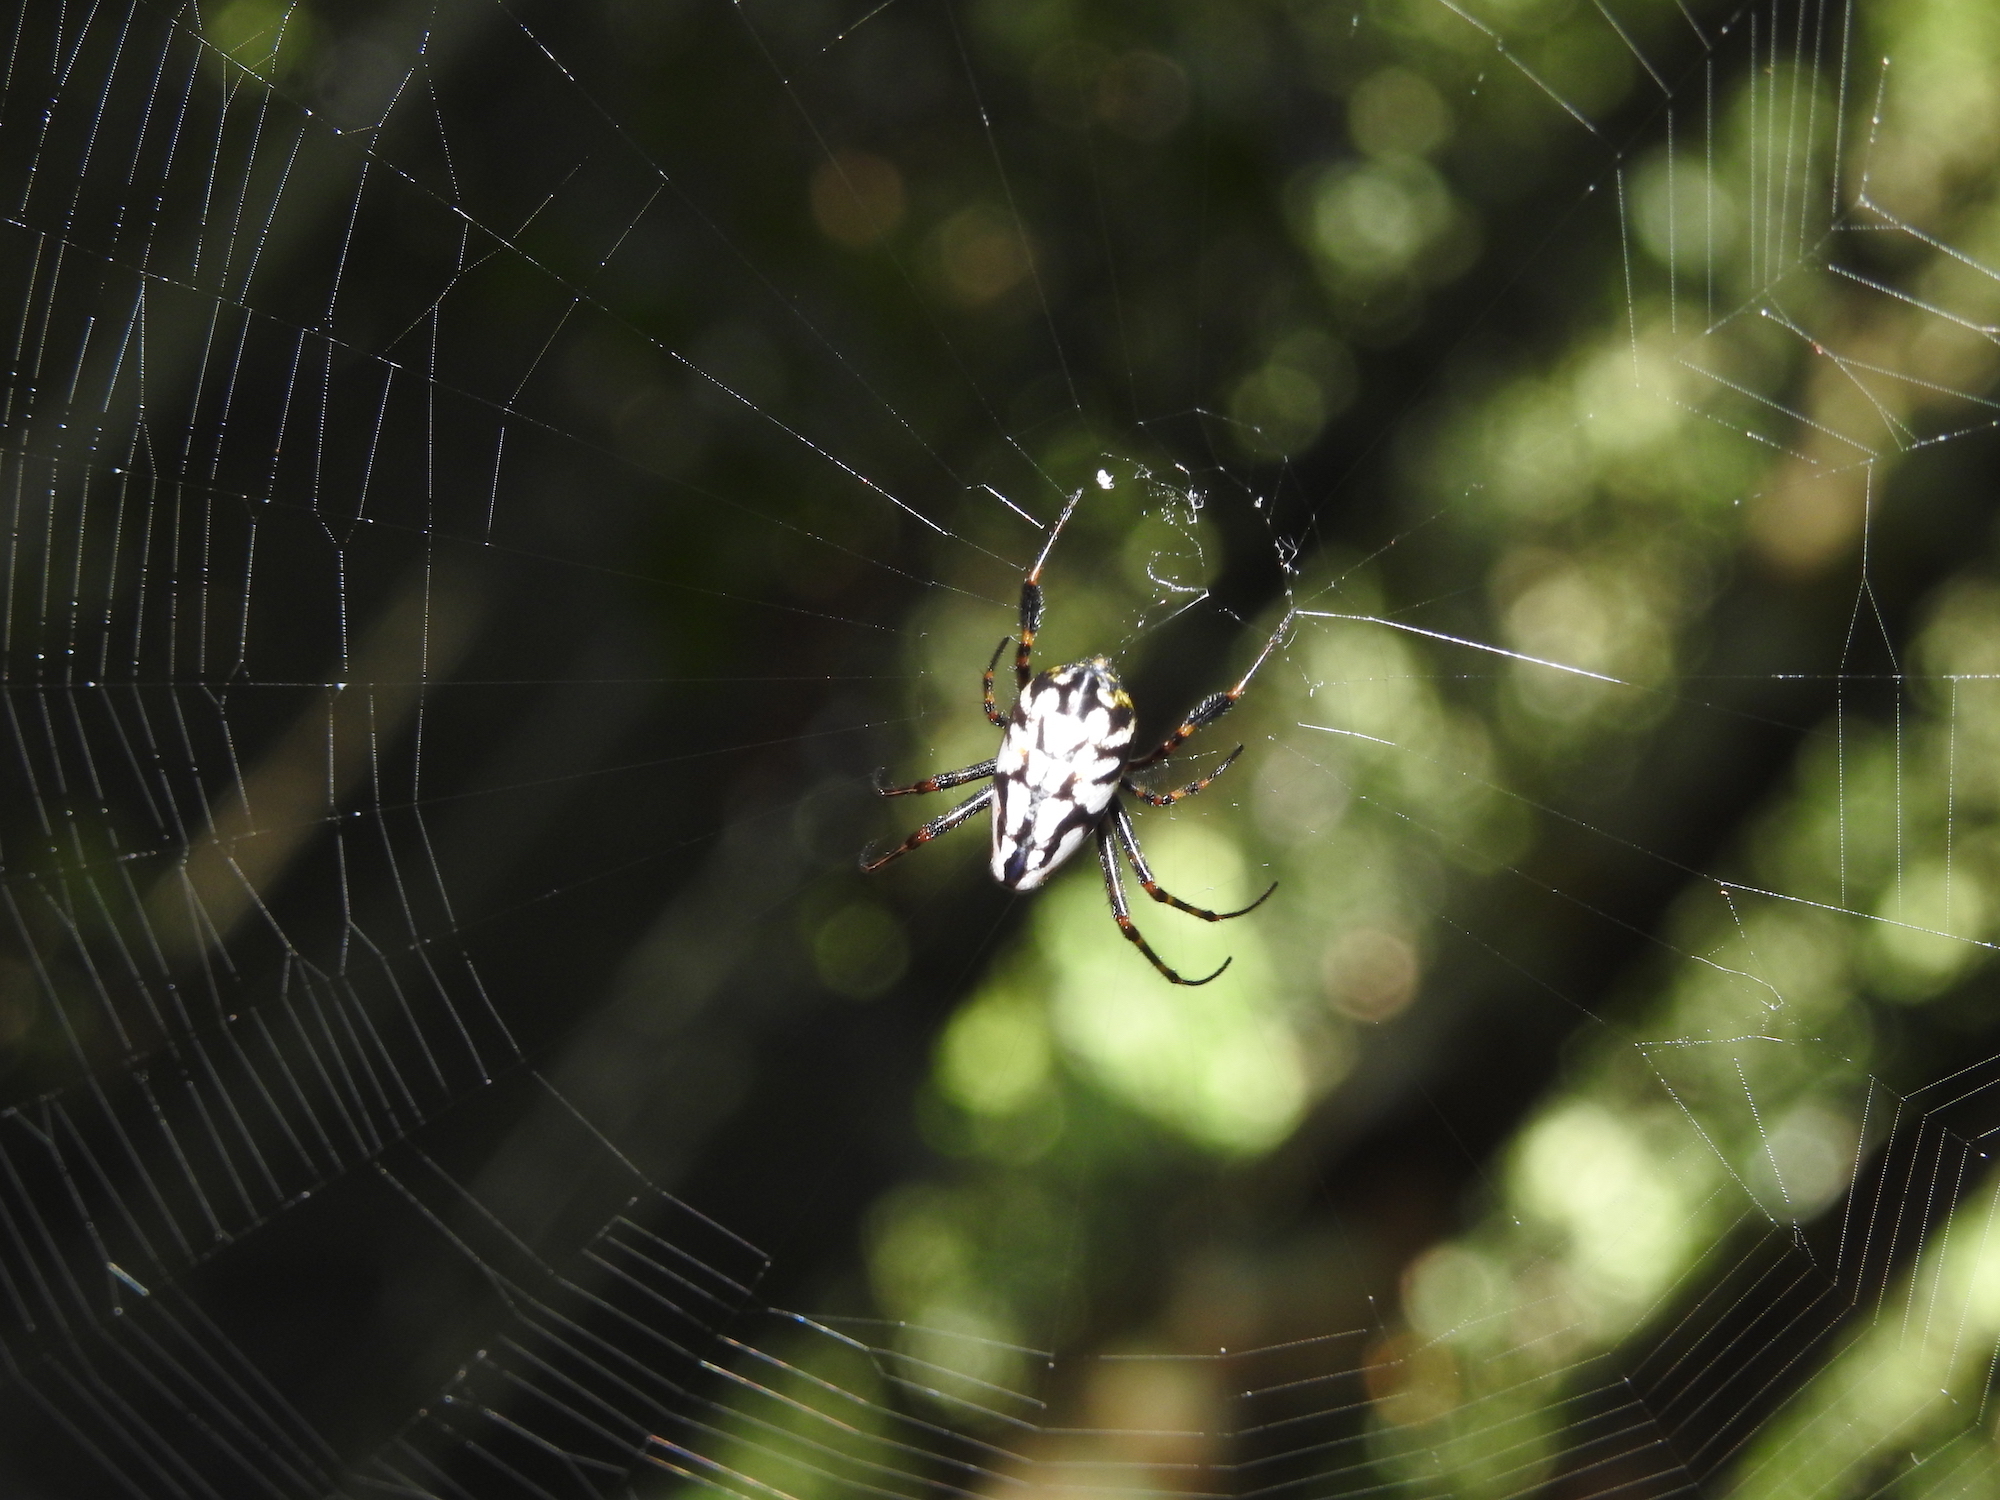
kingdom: Animalia
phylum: Arthropoda
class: Arachnida
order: Araneae
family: Tetragnathidae
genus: Leucauge
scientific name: Leucauge fastigata
